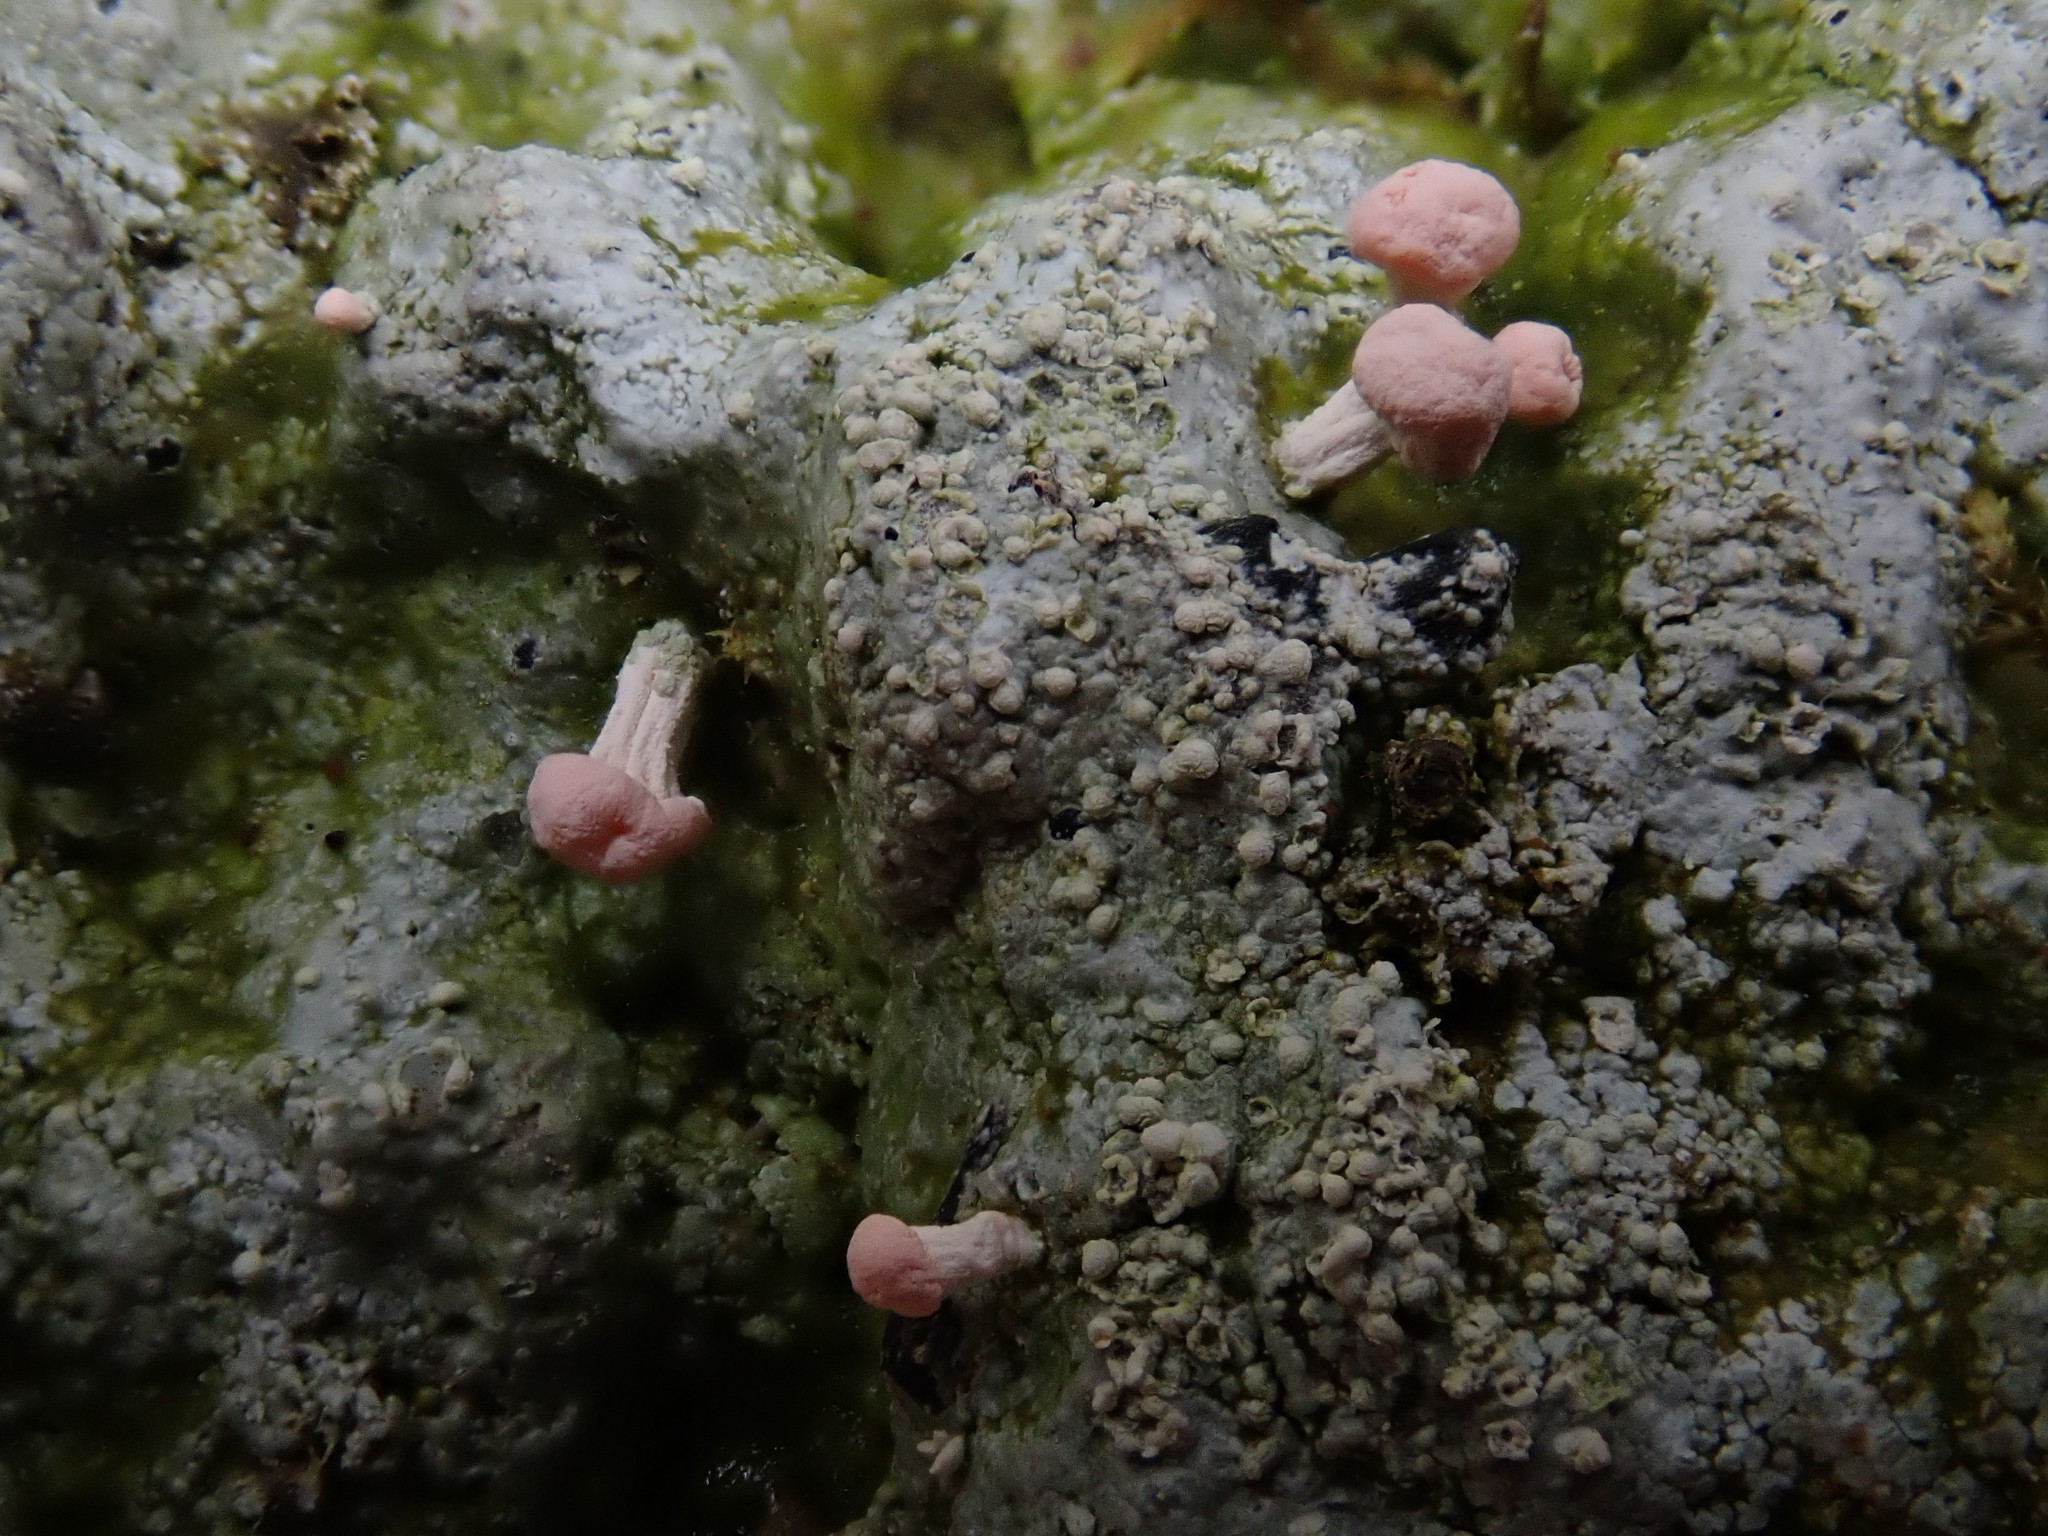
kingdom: Fungi
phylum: Ascomycota
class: Lecanoromycetes
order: Pertusariales
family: Icmadophilaceae
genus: Dibaeis
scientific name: Dibaeis baeomyces
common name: Pink earth lichen
